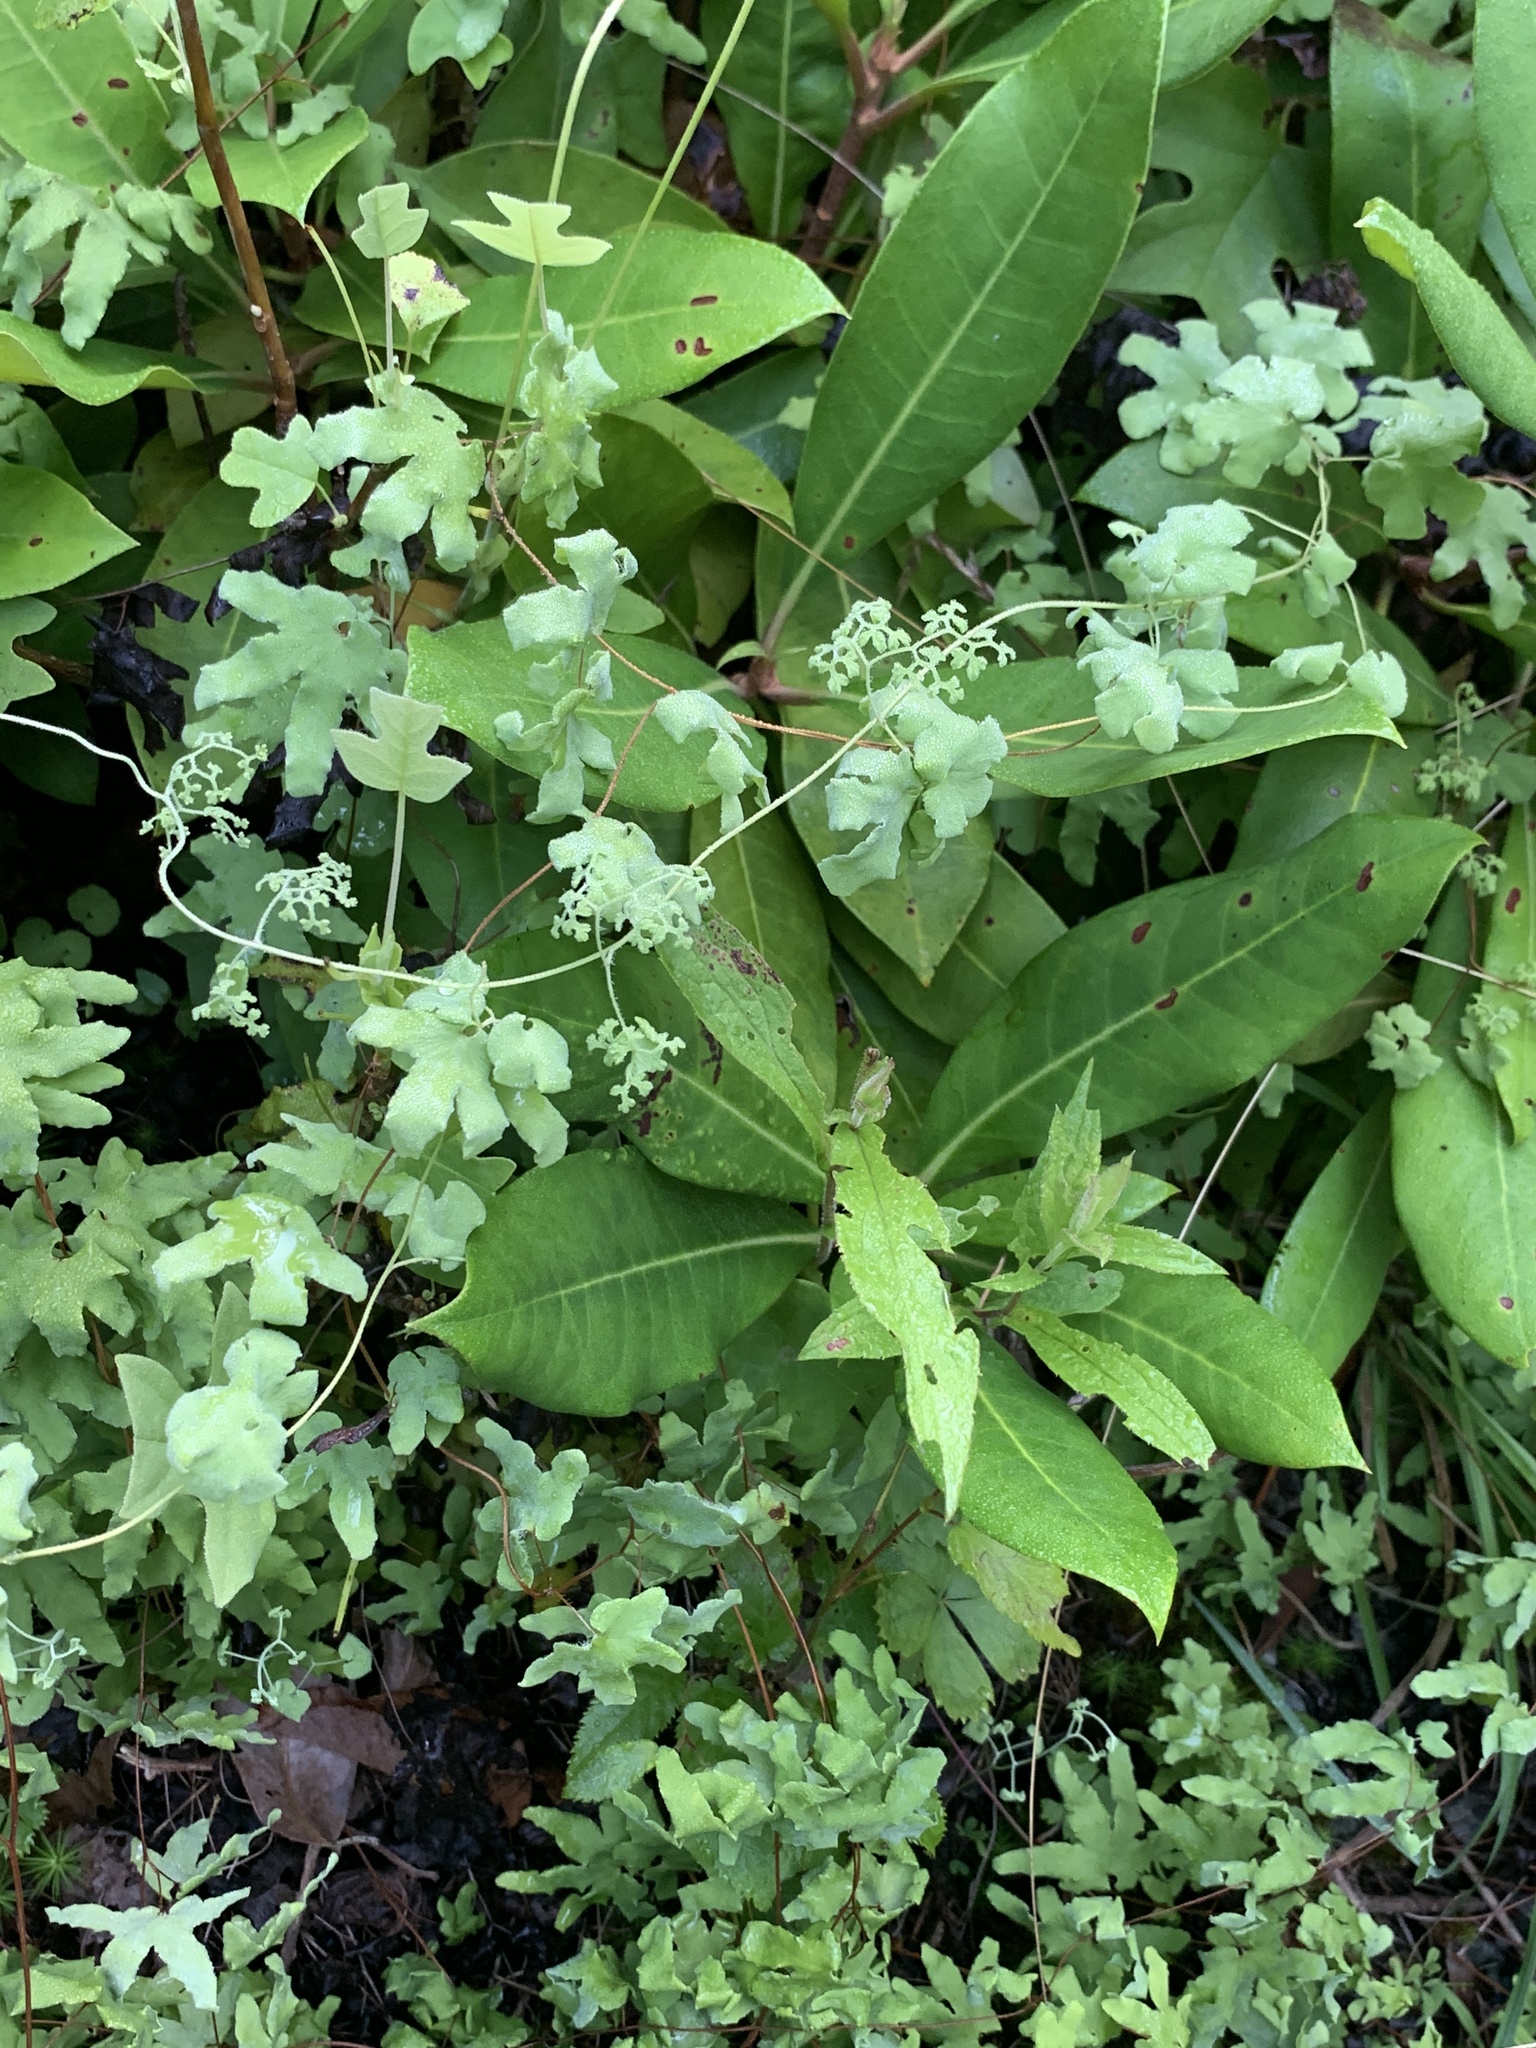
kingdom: Plantae
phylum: Tracheophyta
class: Polypodiopsida
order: Schizaeales
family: Lygodiaceae
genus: Lygodium
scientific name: Lygodium palmatum
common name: American climbing fern
